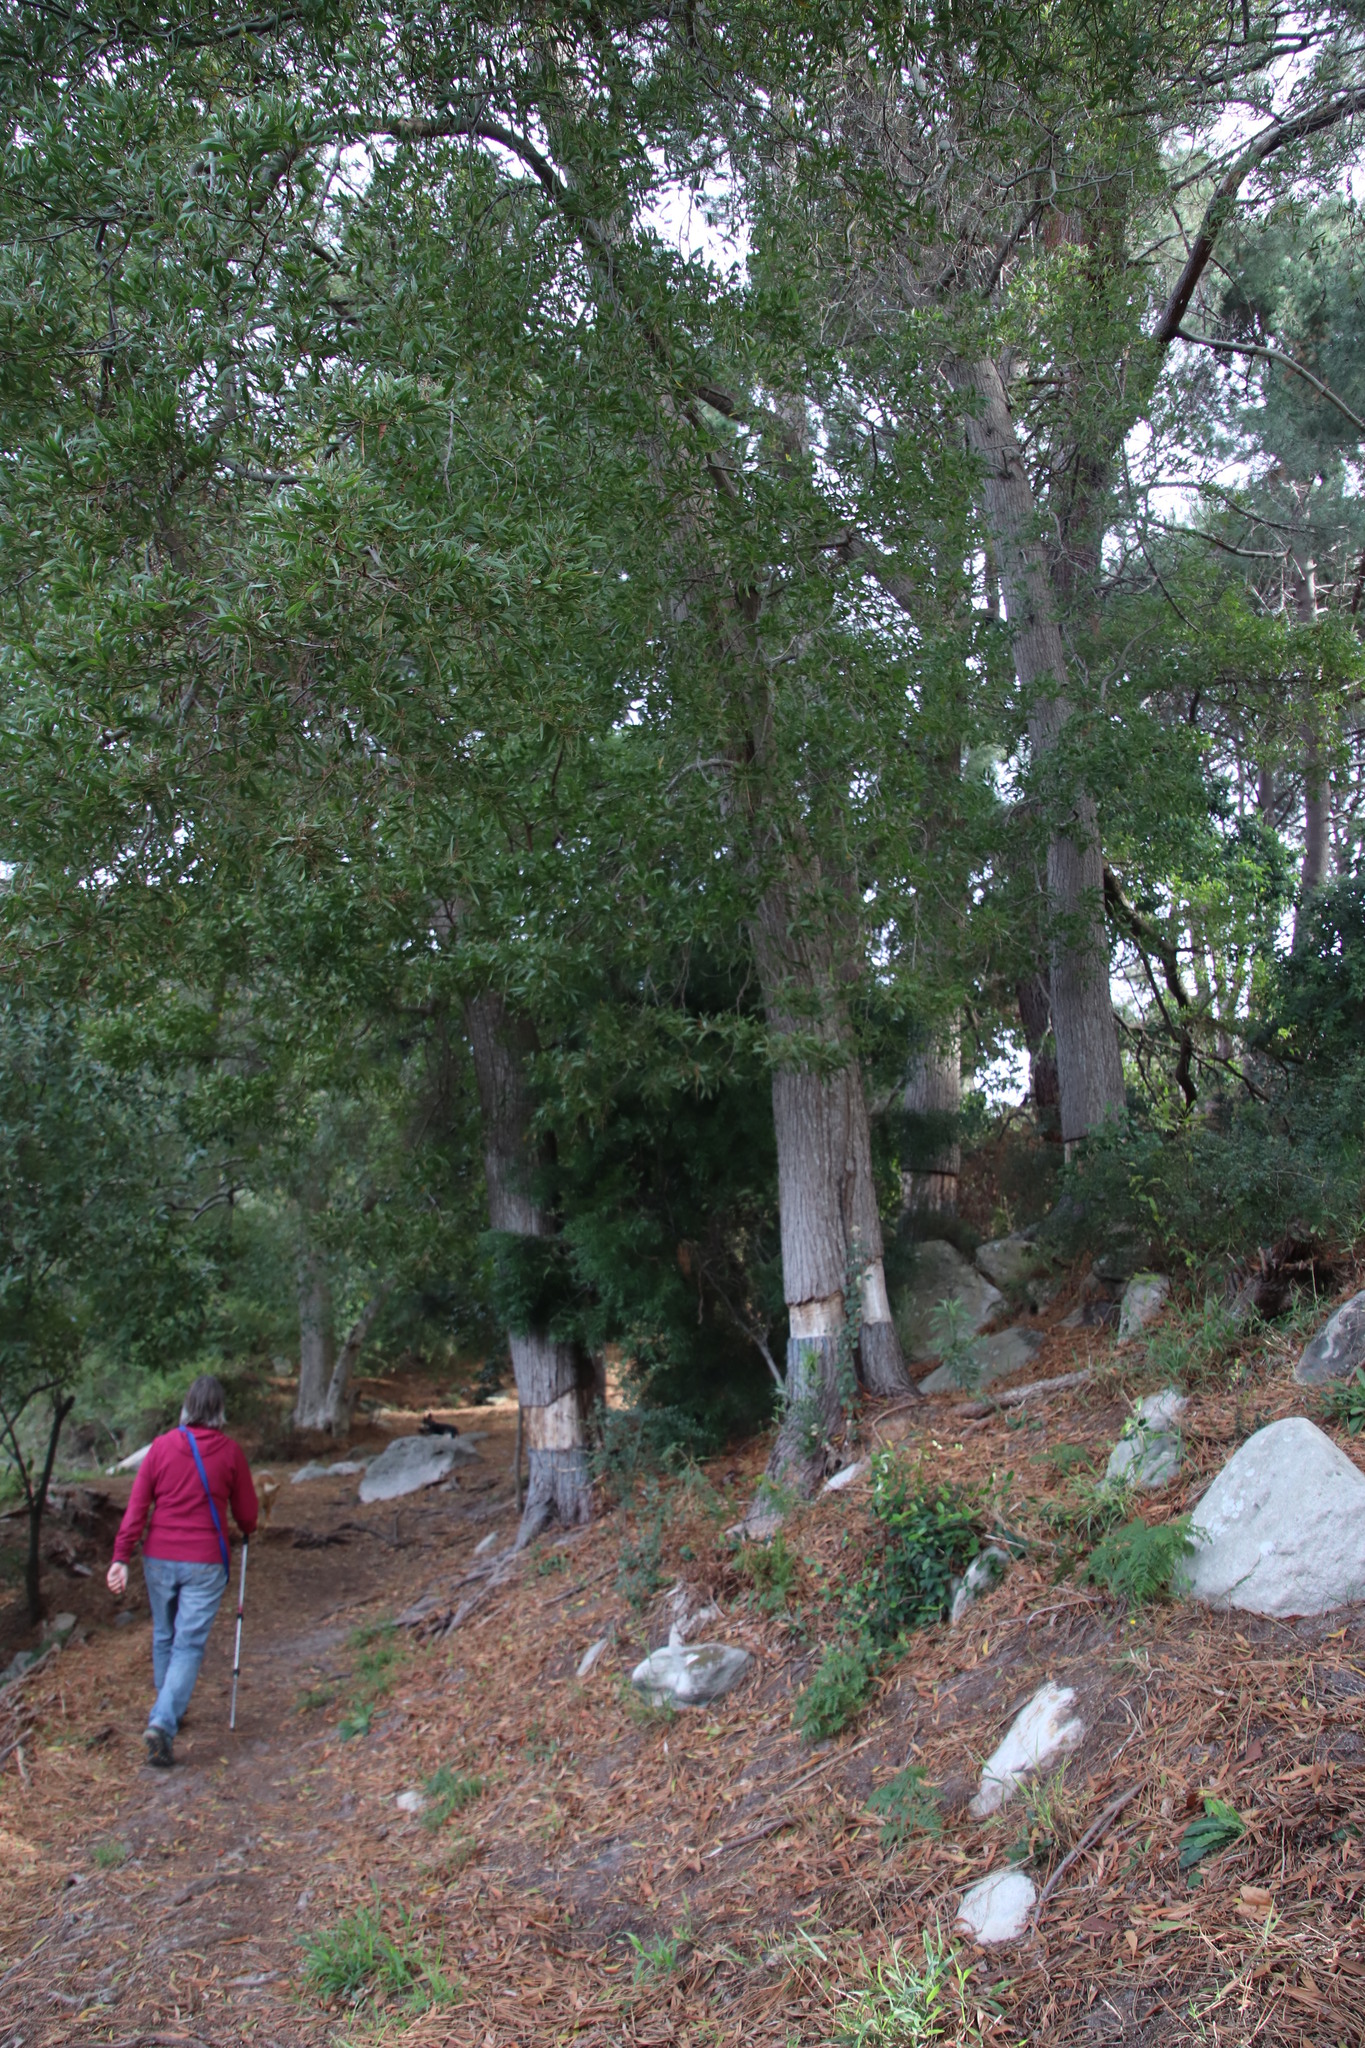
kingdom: Plantae
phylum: Tracheophyta
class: Magnoliopsida
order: Fabales
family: Fabaceae
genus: Acacia
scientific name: Acacia melanoxylon
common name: Blackwood
